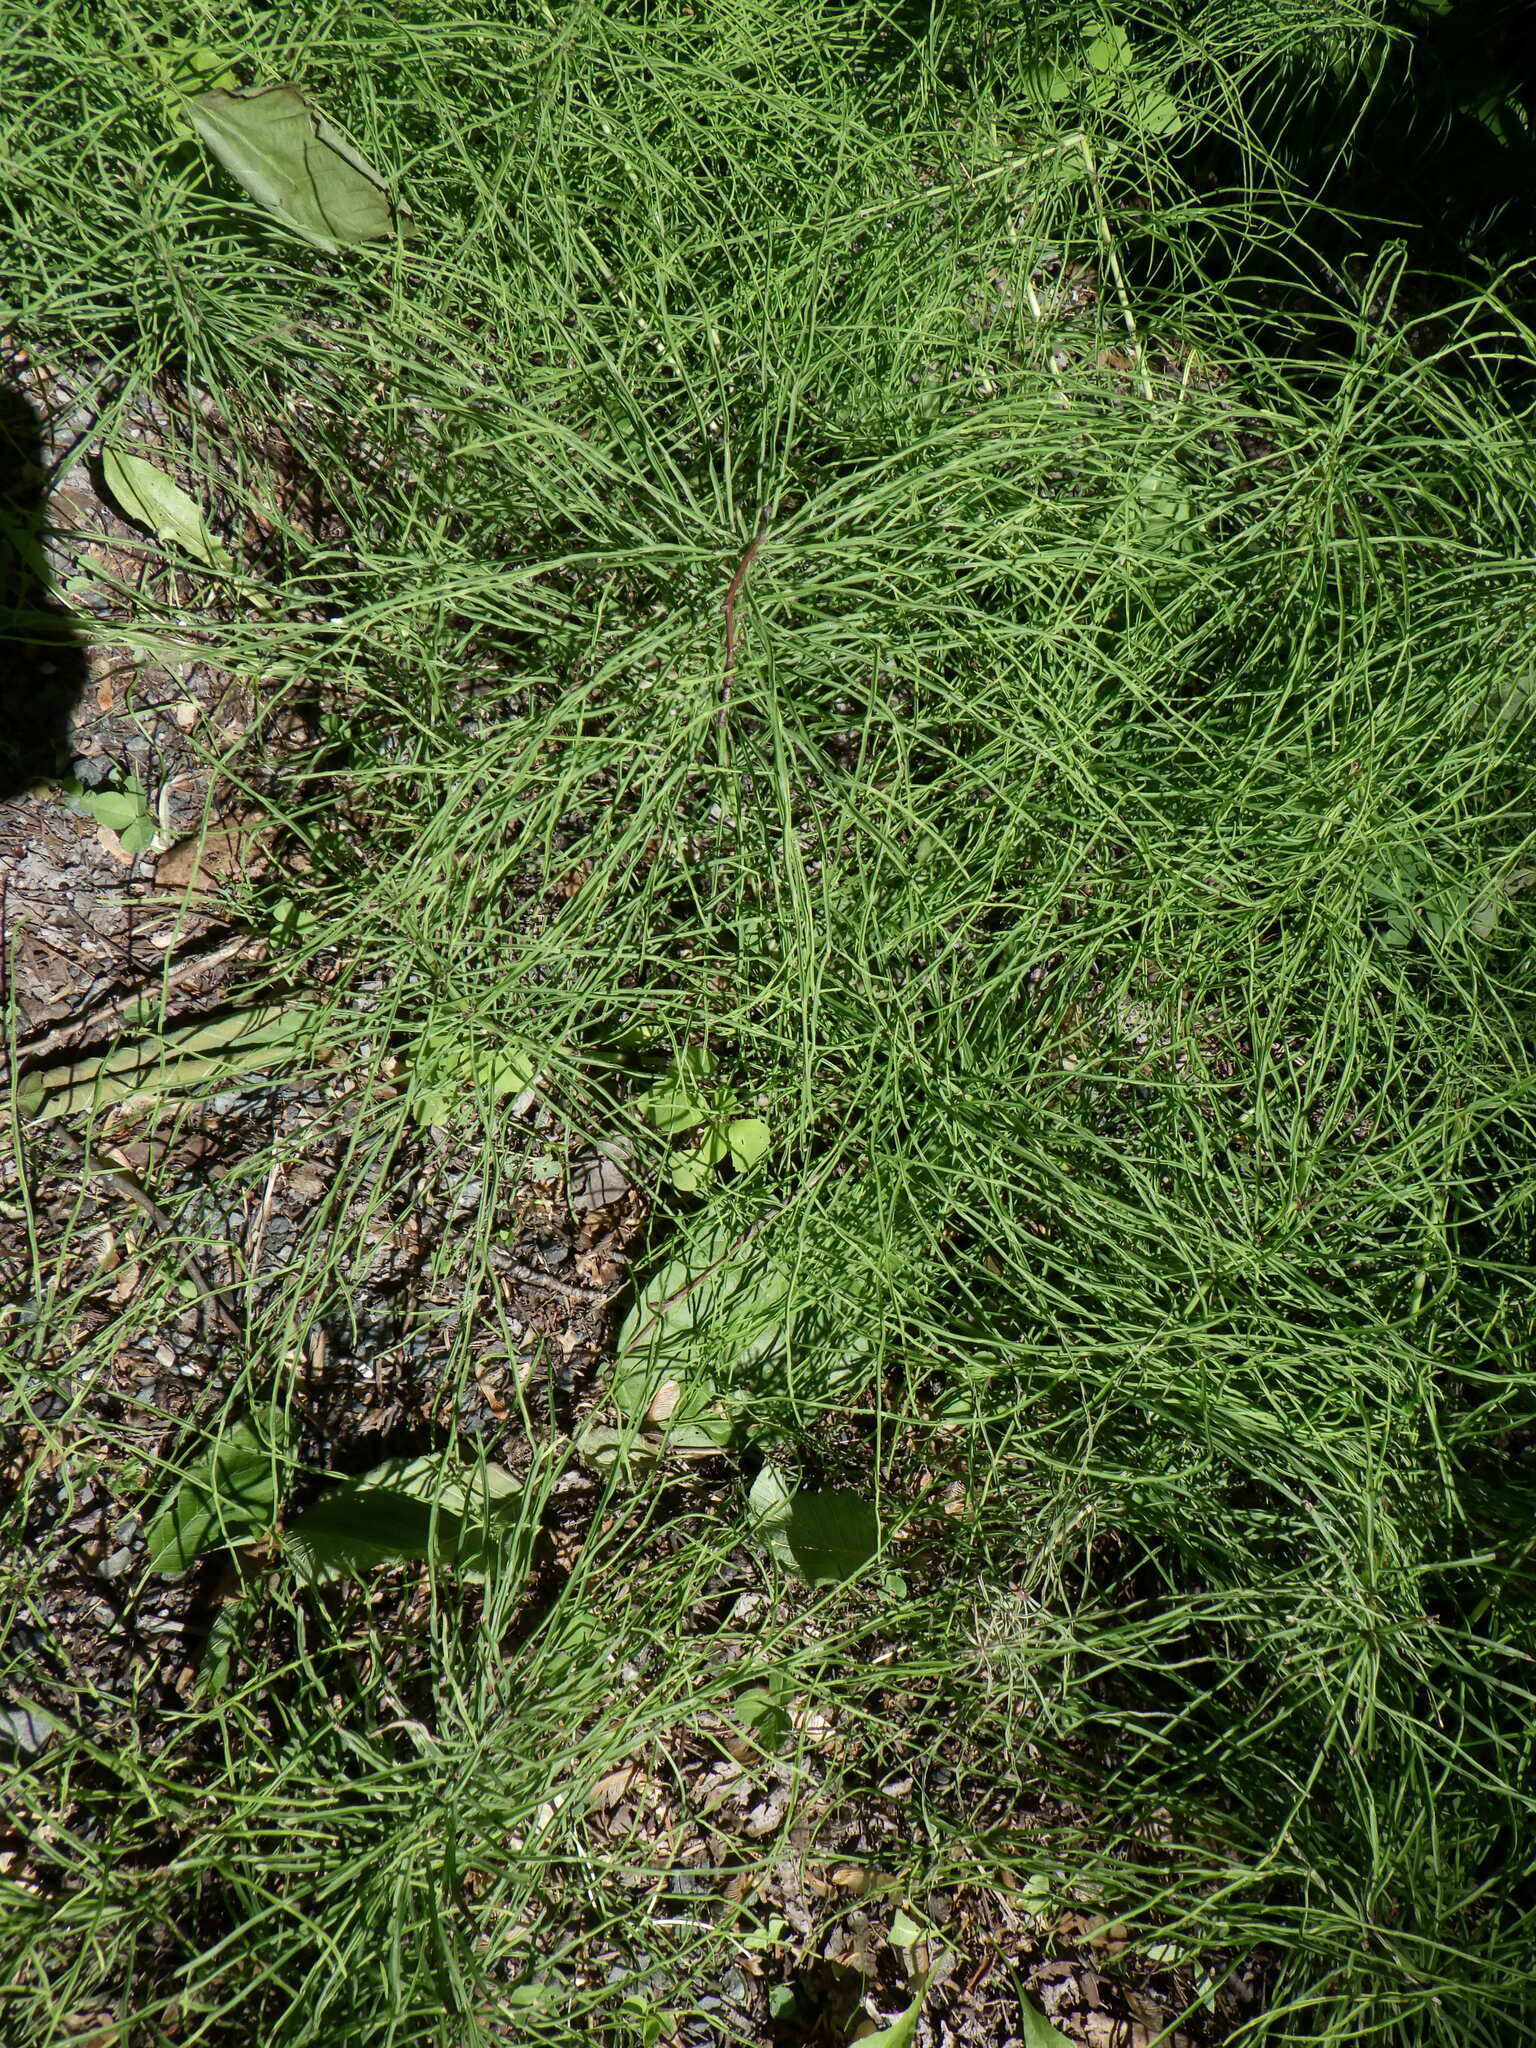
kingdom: Plantae
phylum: Tracheophyta
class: Polypodiopsida
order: Equisetales
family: Equisetaceae
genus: Equisetum
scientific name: Equisetum arvense
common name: Field horsetail
